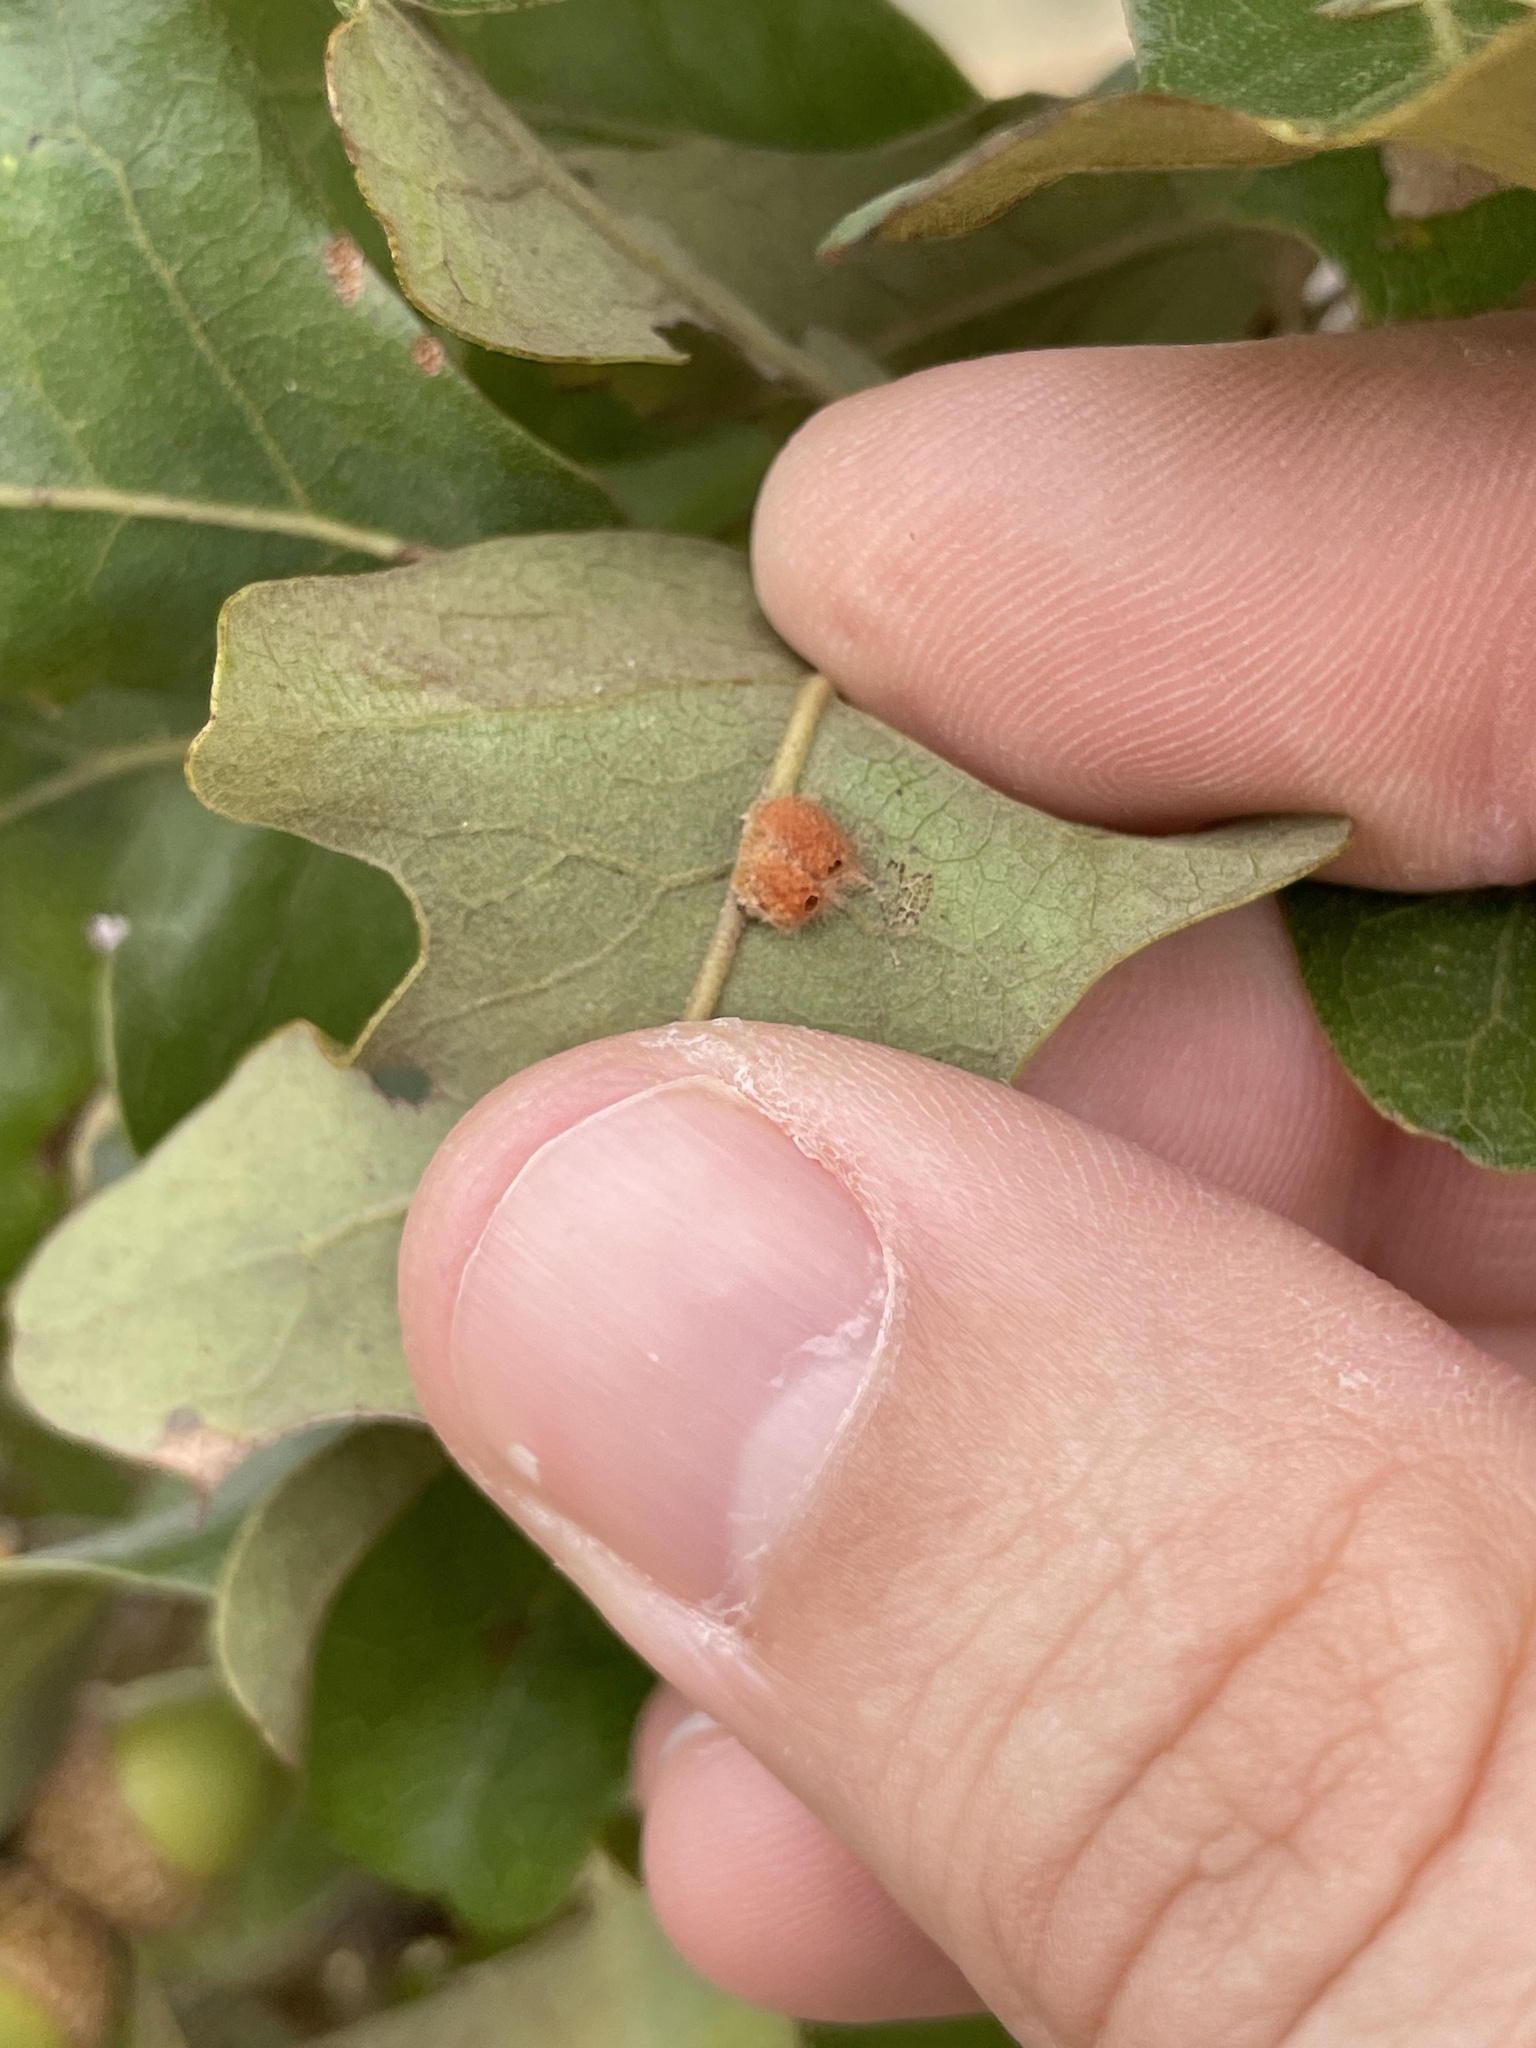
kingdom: Animalia
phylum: Arthropoda
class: Insecta
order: Hymenoptera
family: Cynipidae
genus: Andricus
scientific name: Andricus Druon pattoni
